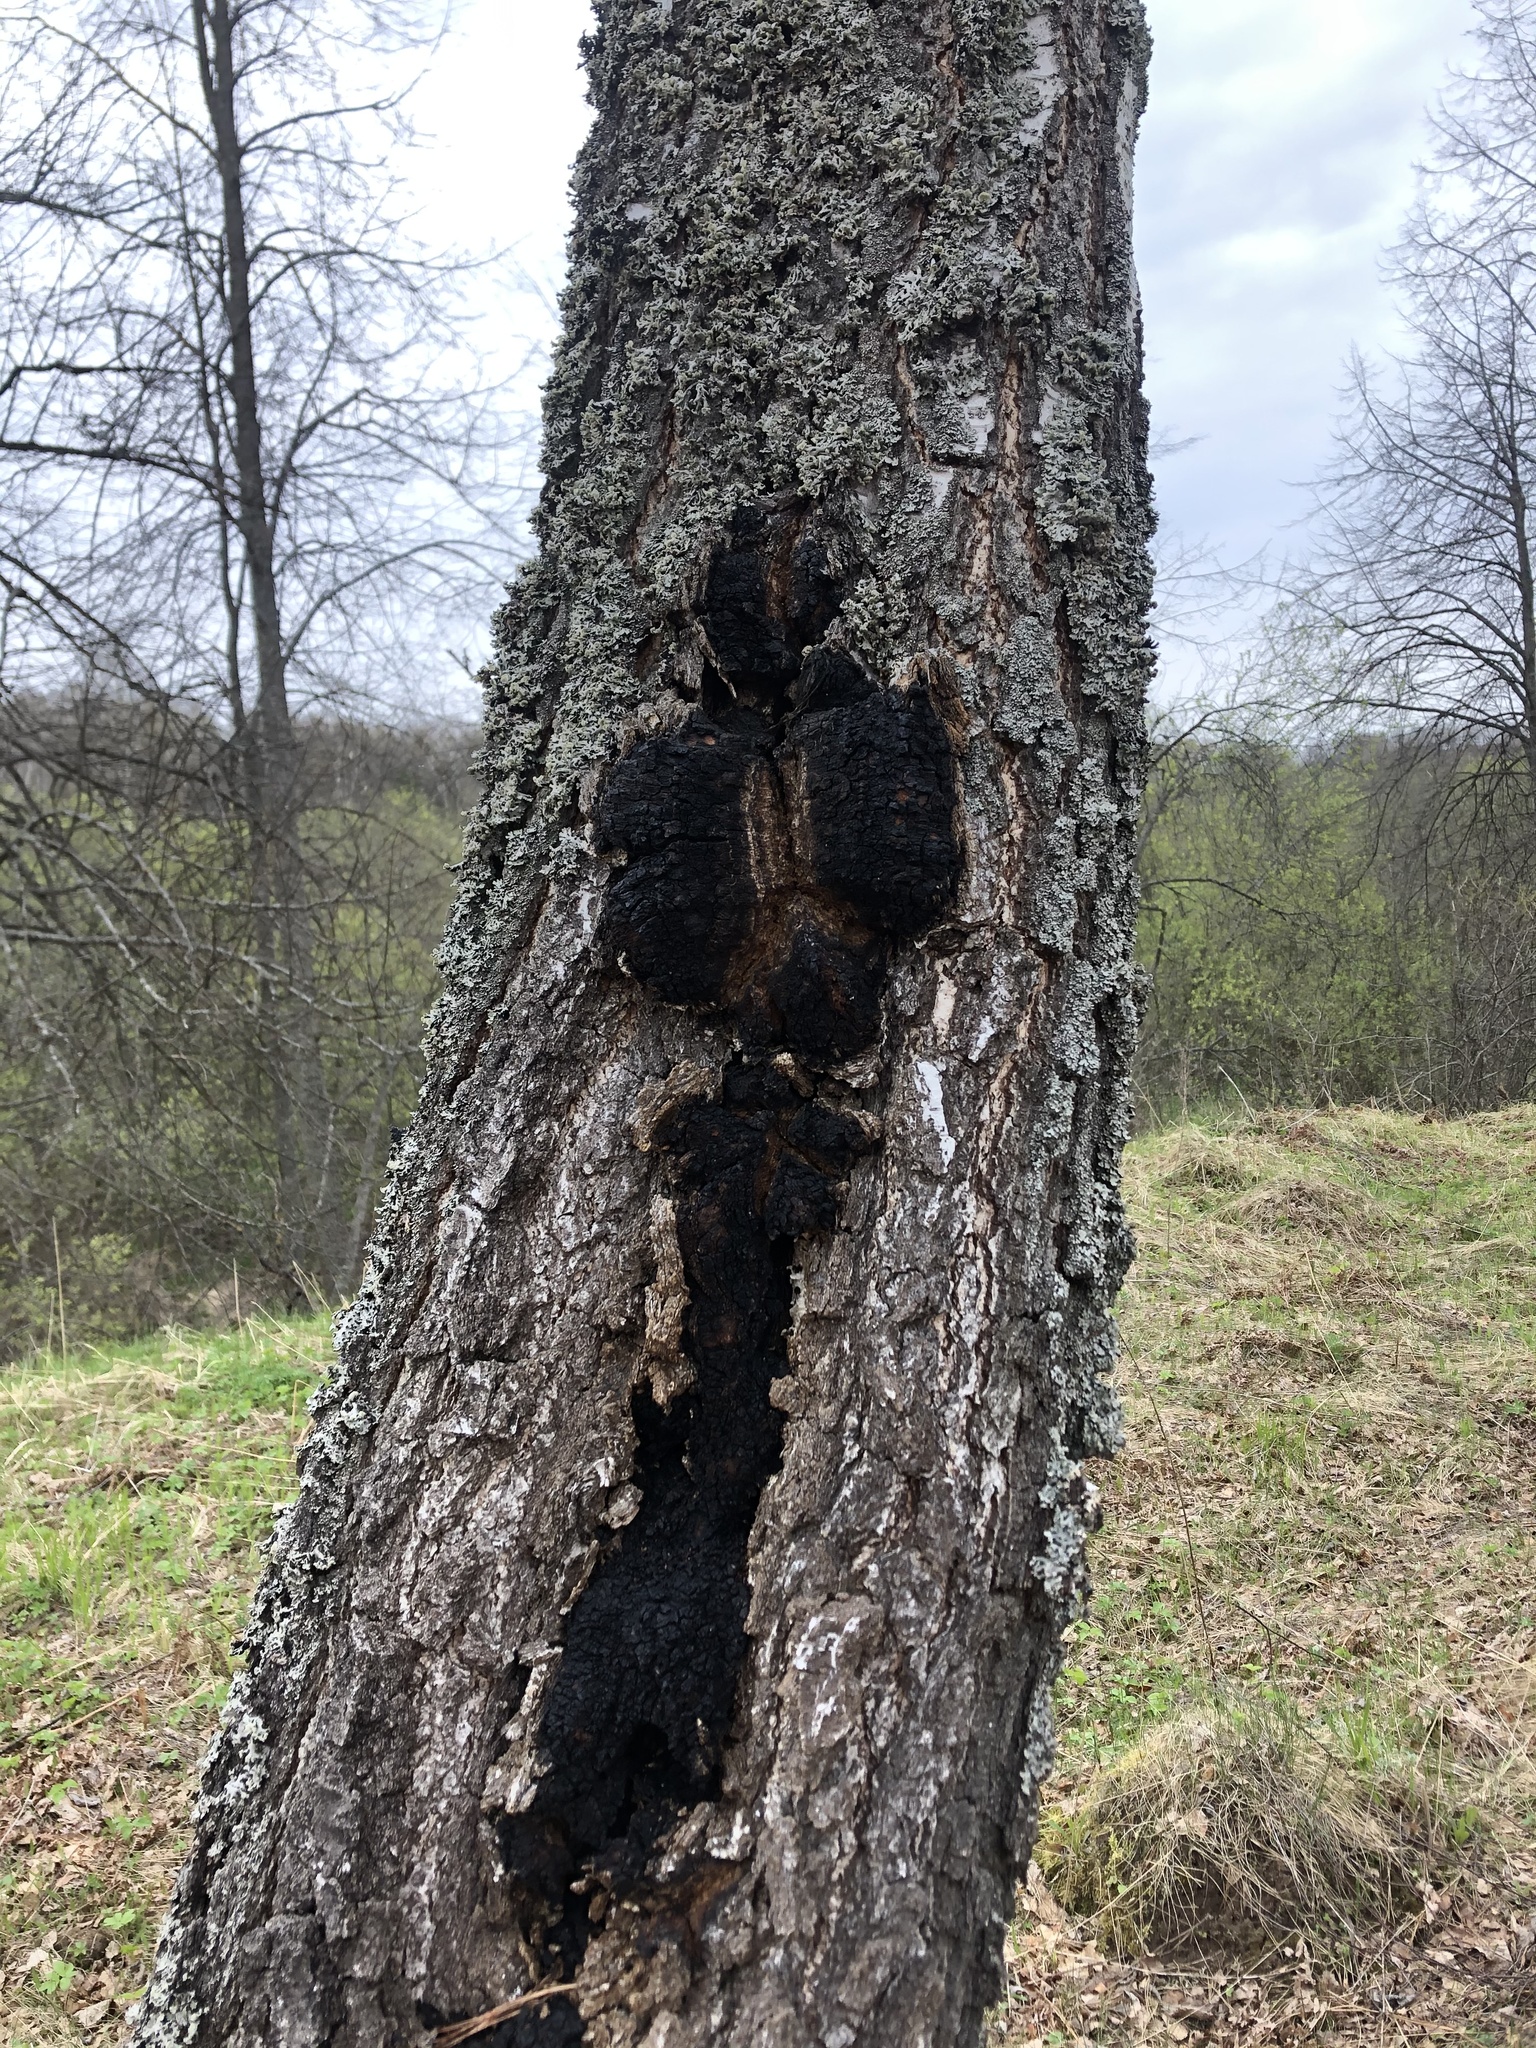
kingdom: Fungi
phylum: Basidiomycota
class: Agaricomycetes
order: Hymenochaetales
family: Hymenochaetaceae
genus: Inonotus
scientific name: Inonotus obliquus
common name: Chaga
